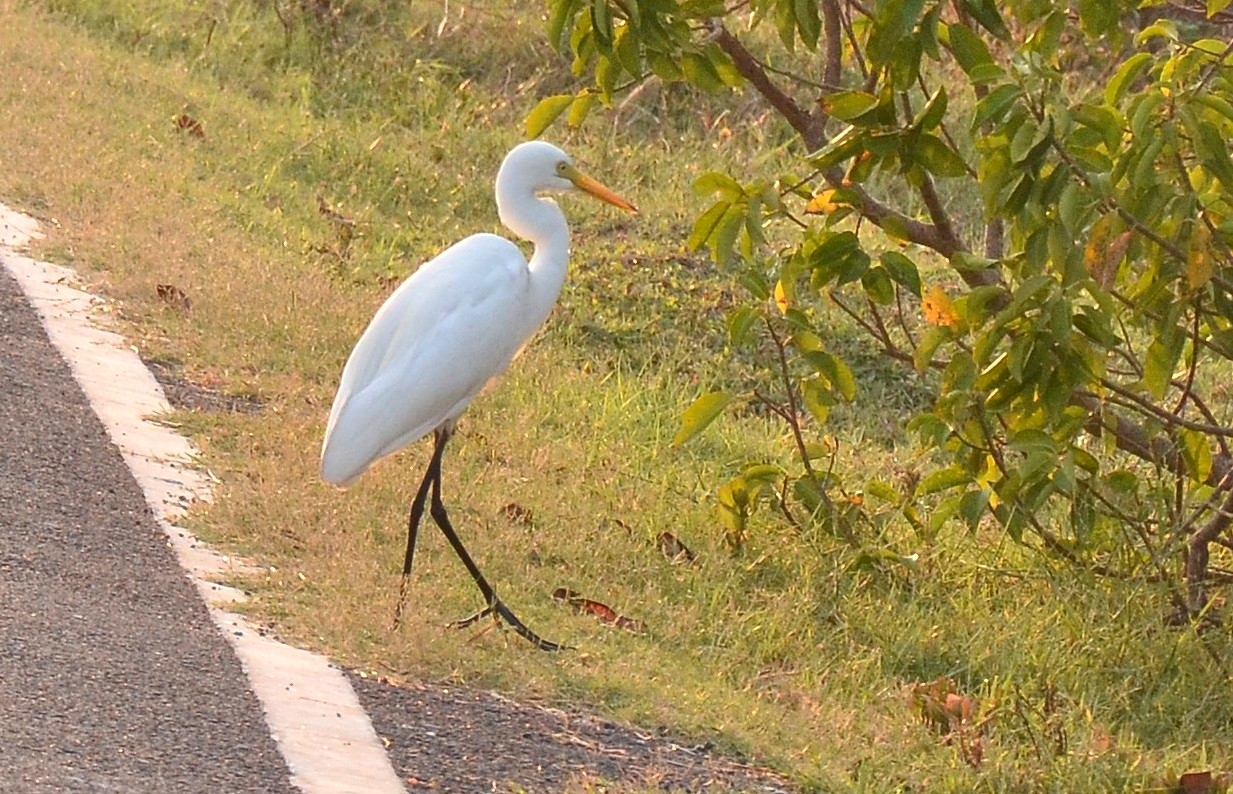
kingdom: Animalia
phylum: Chordata
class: Aves
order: Pelecaniformes
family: Ardeidae
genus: Egretta
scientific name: Egretta intermedia
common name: Intermediate egret
